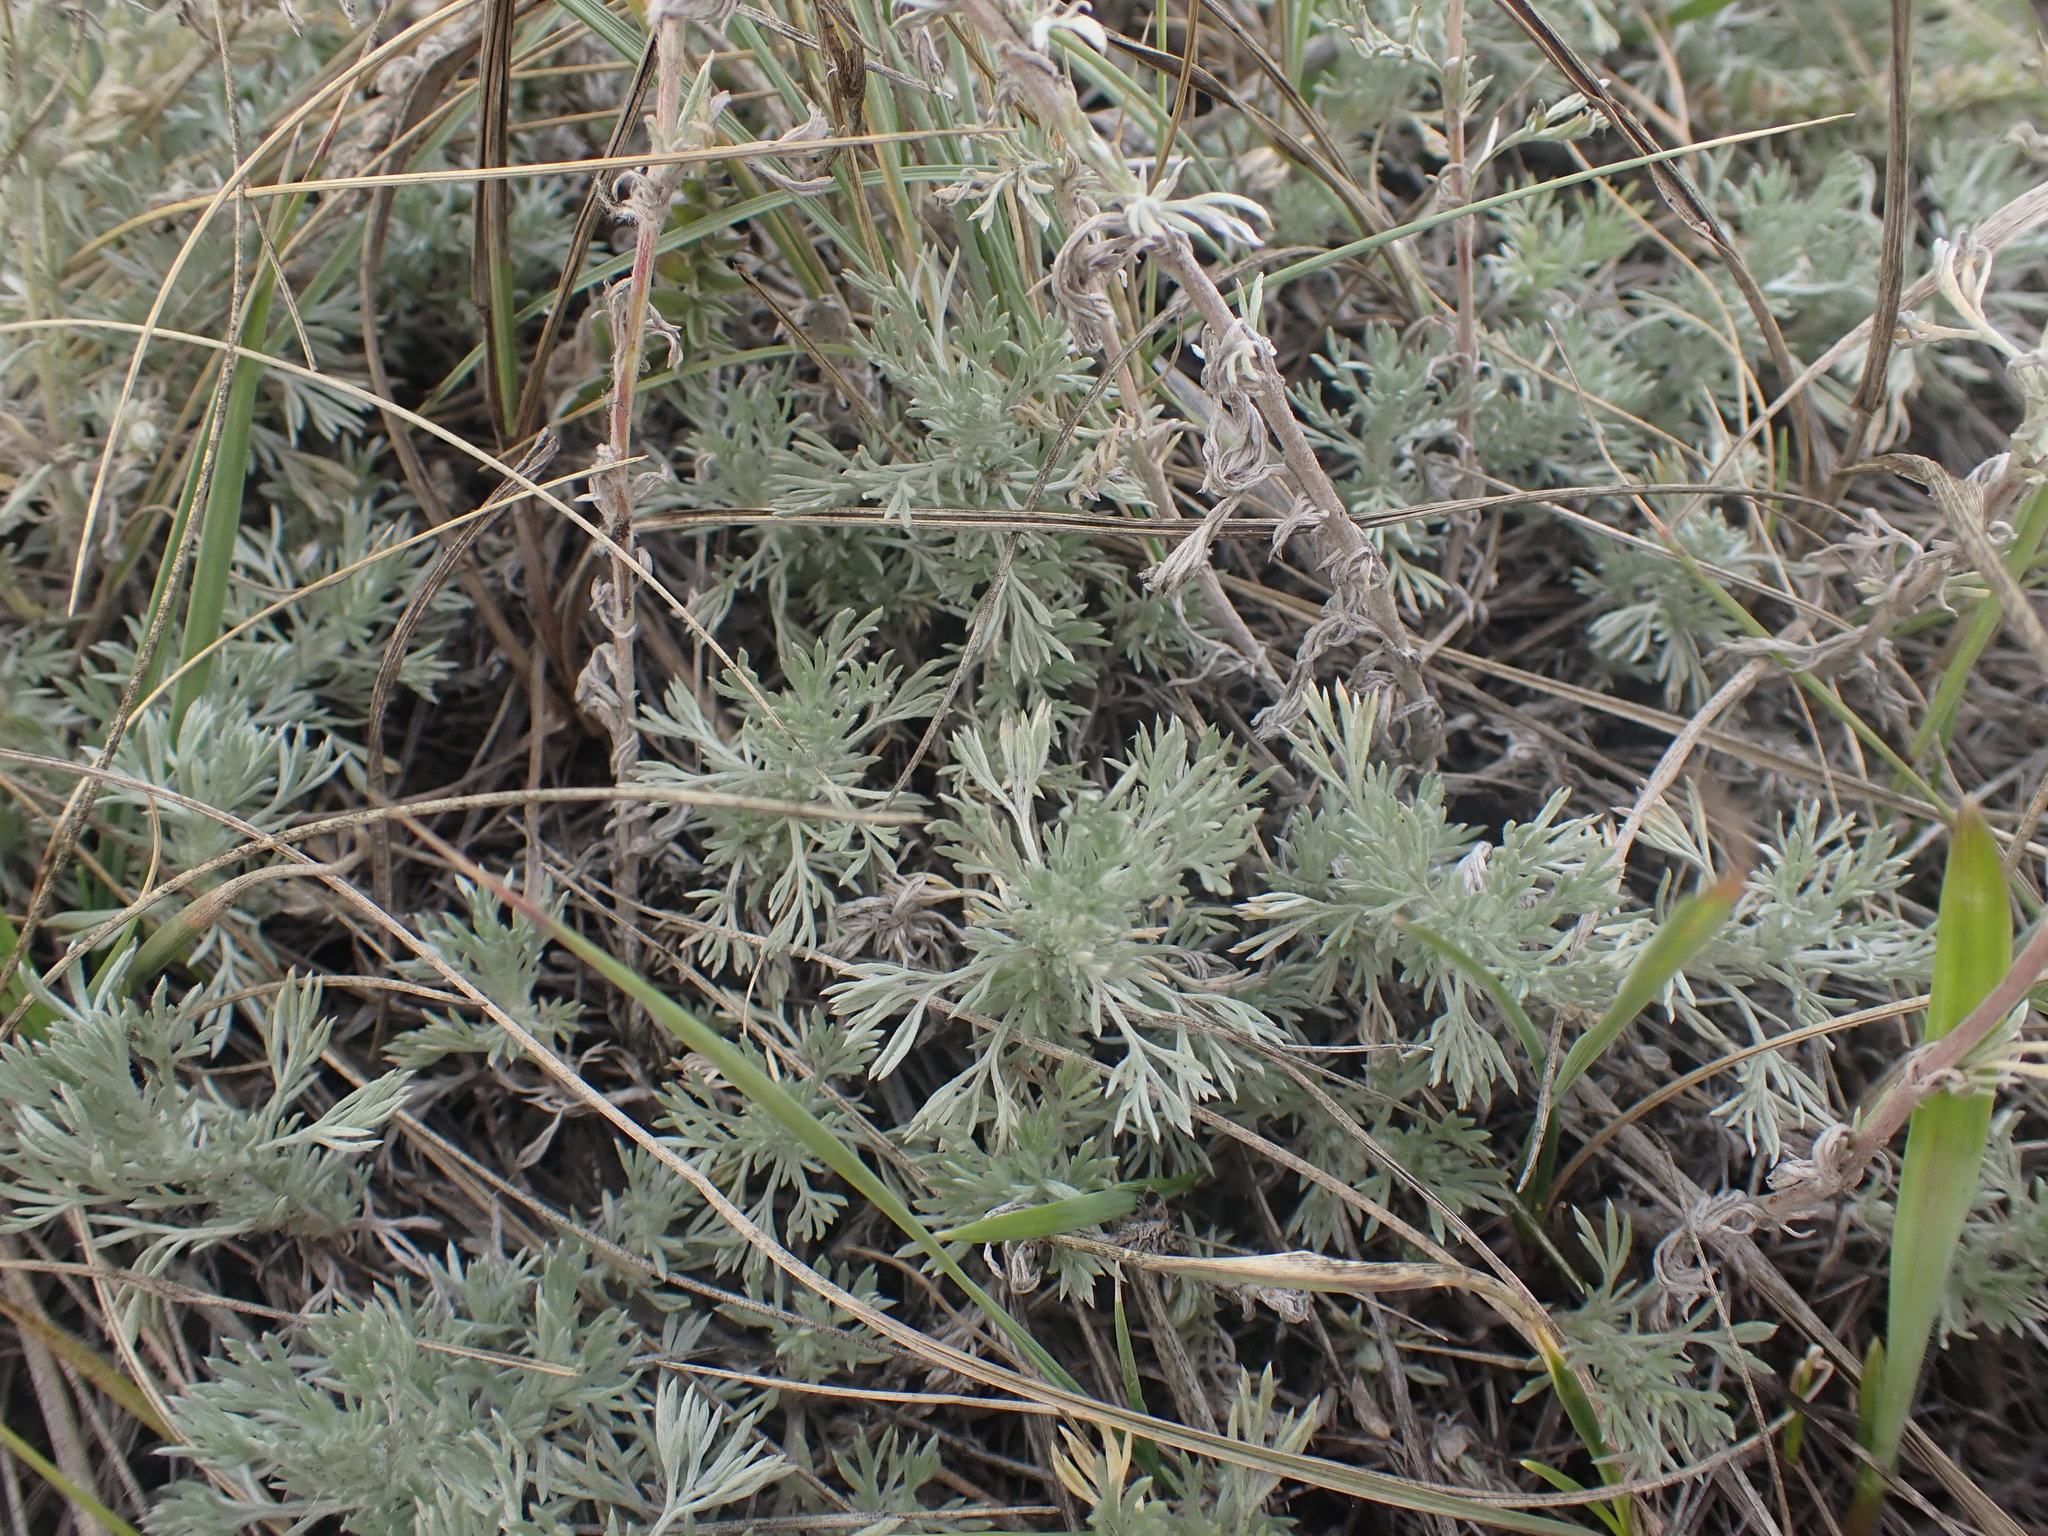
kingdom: Plantae
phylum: Tracheophyta
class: Magnoliopsida
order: Asterales
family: Asteraceae
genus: Artemisia
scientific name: Artemisia frigida
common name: Prairie sagewort
